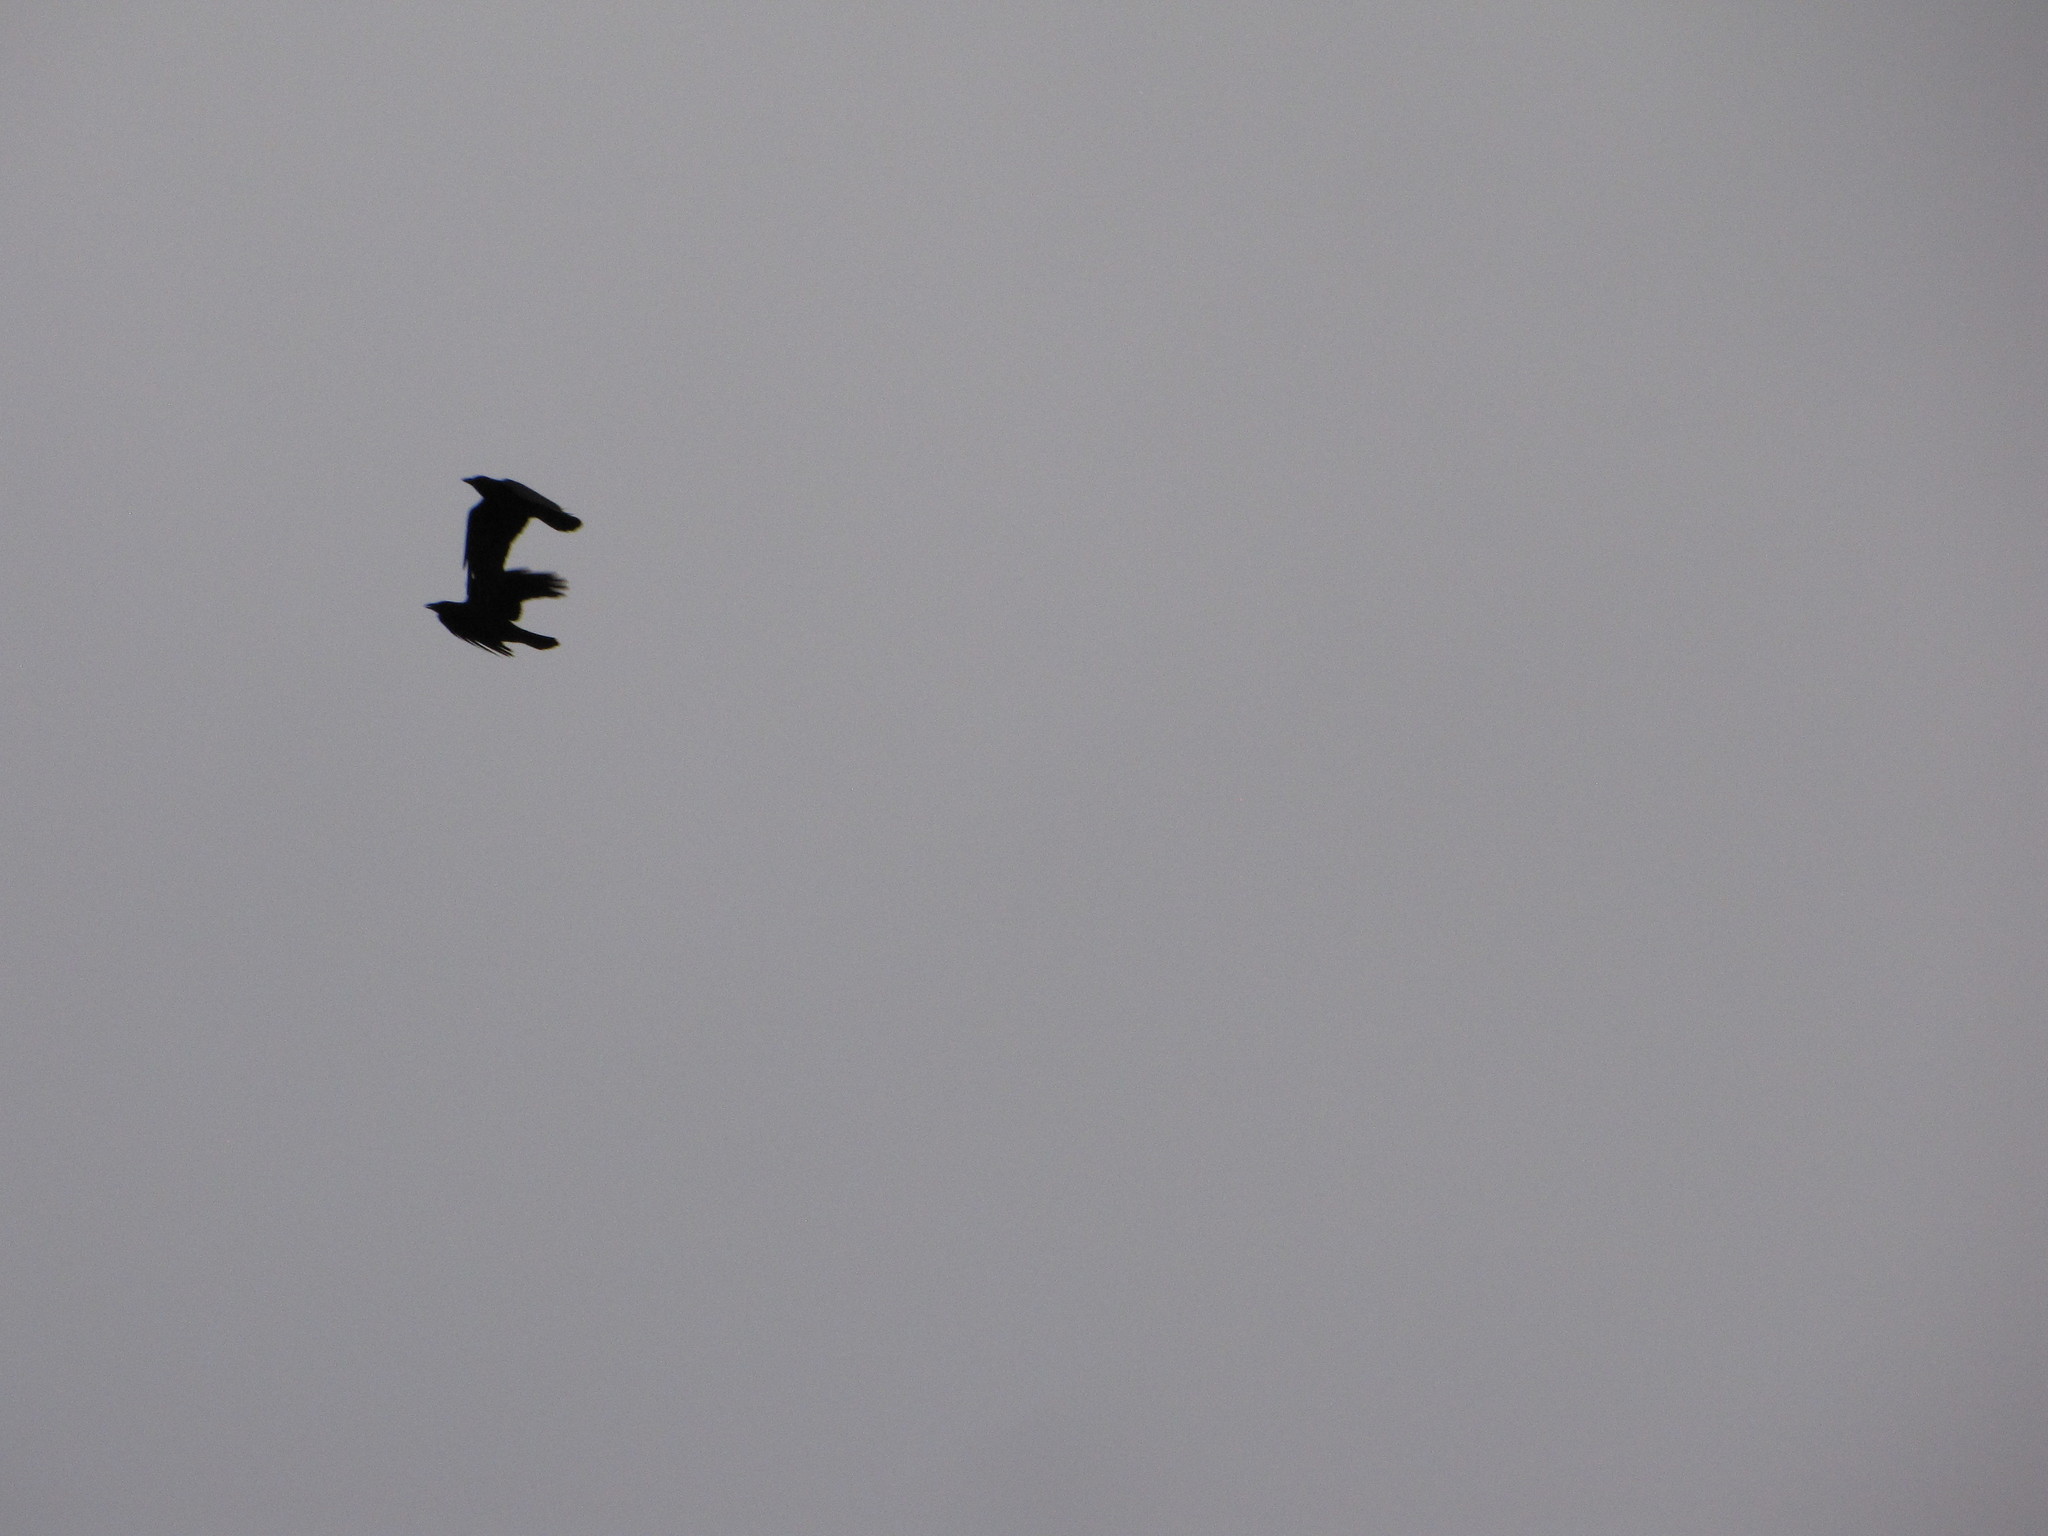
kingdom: Animalia
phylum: Chordata
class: Aves
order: Passeriformes
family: Corvidae
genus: Corvus
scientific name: Corvus brachyrhynchos
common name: American crow
